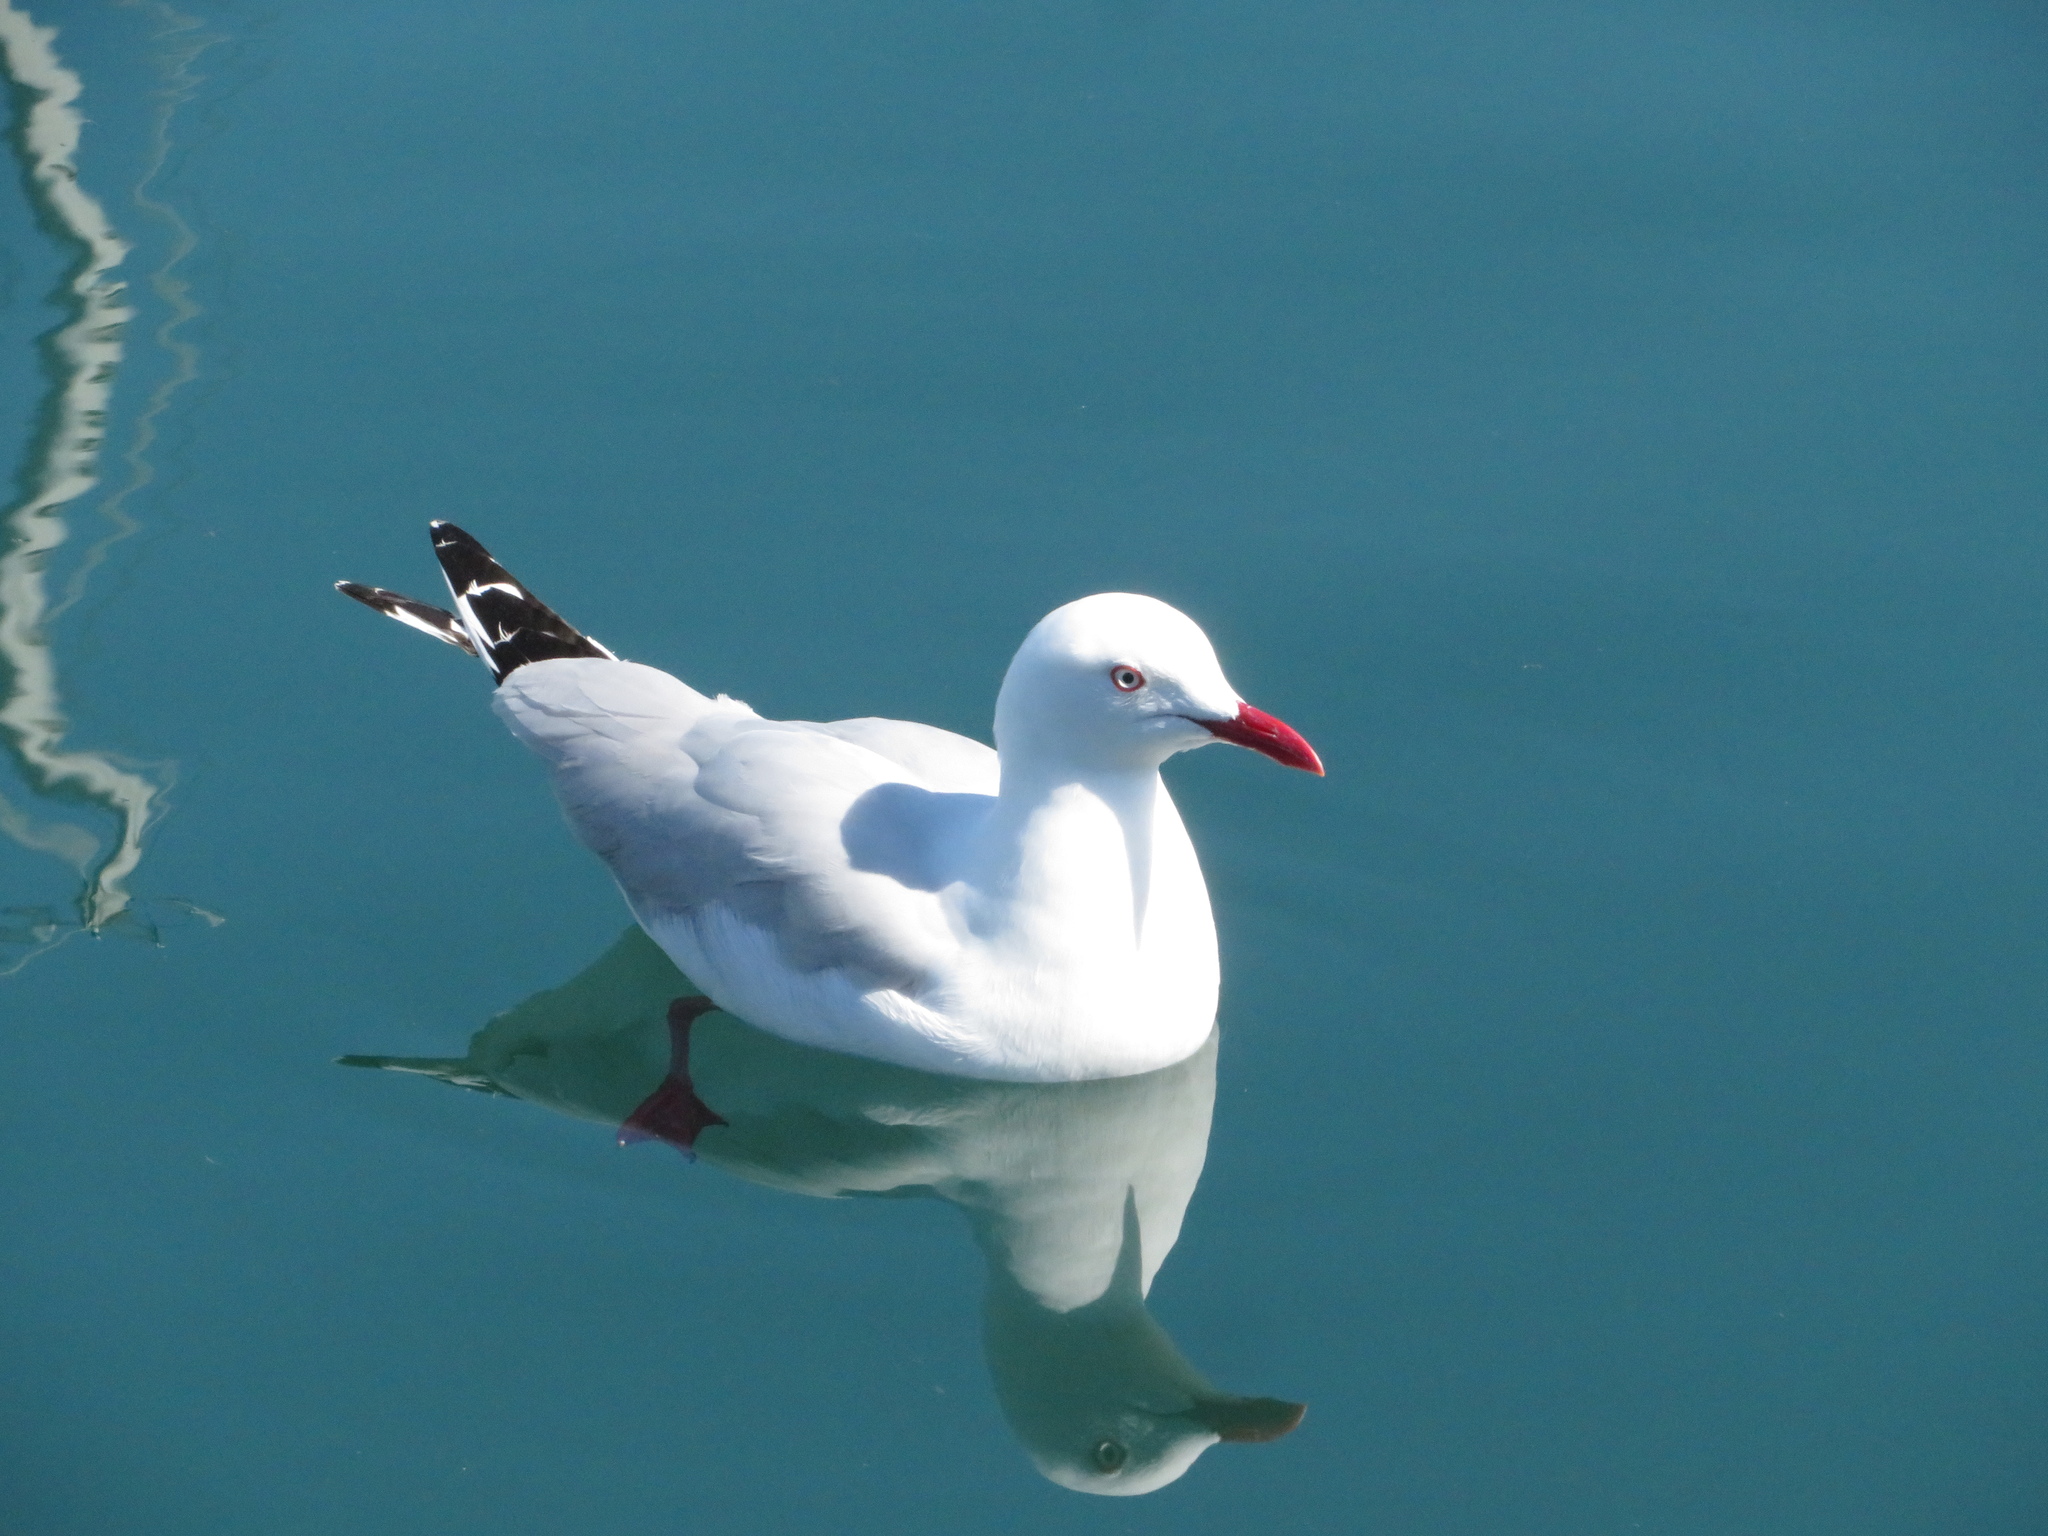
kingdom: Animalia
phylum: Chordata
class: Aves
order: Charadriiformes
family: Laridae
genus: Chroicocephalus
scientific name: Chroicocephalus novaehollandiae
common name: Silver gull
